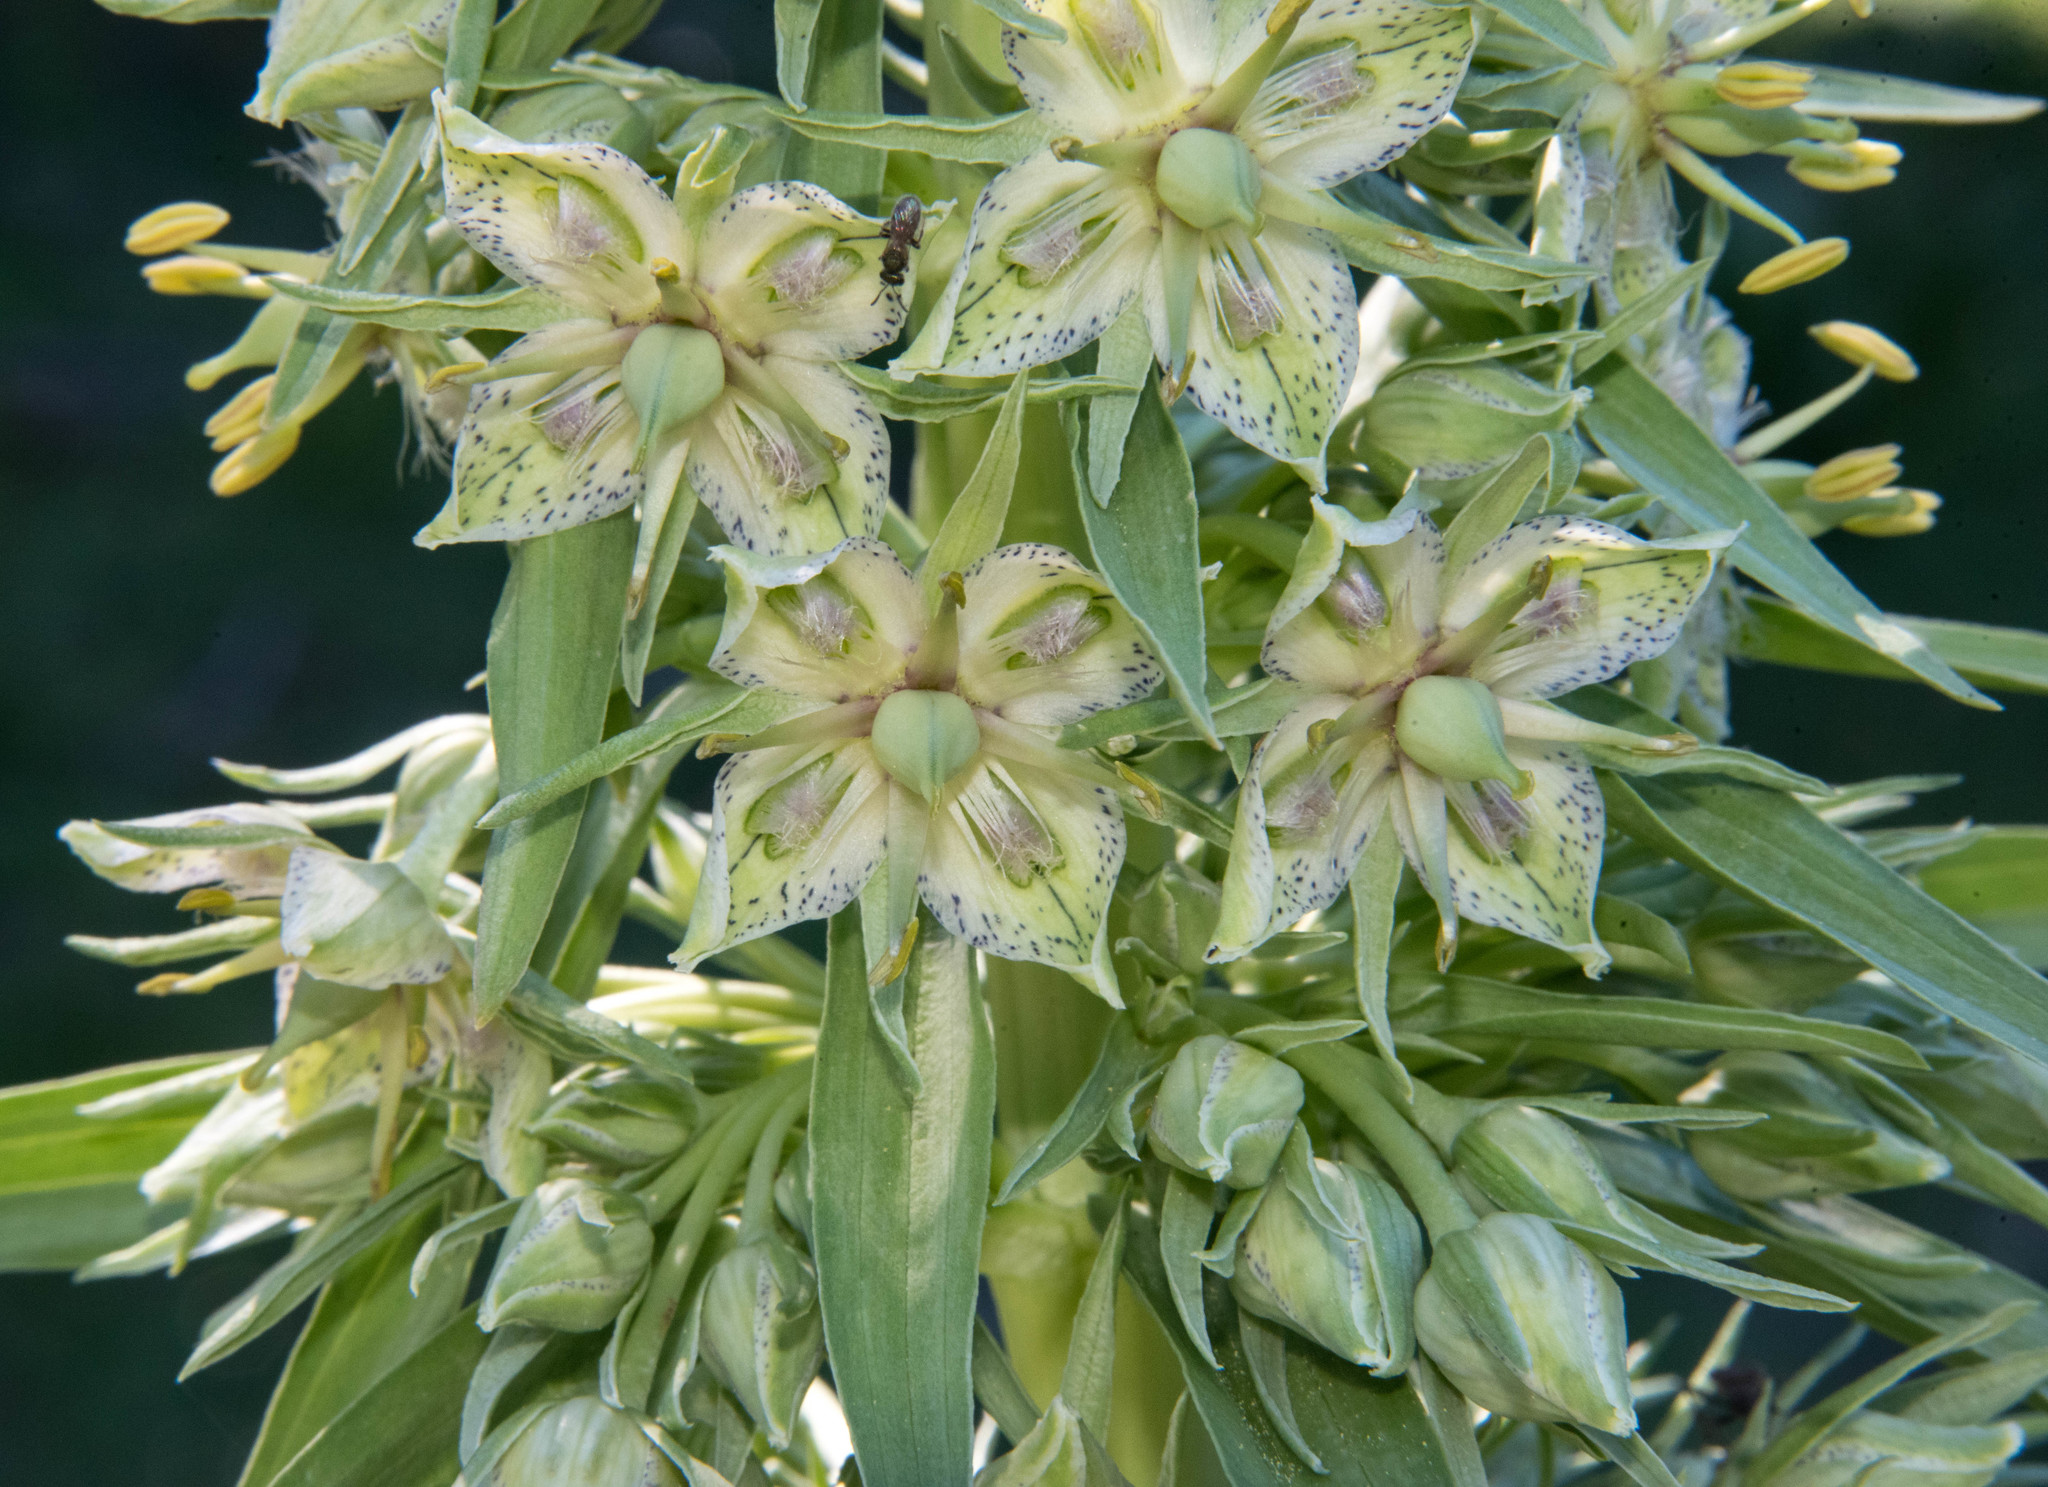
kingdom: Plantae
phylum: Tracheophyta
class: Magnoliopsida
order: Gentianales
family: Gentianaceae
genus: Frasera
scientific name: Frasera speciosa
